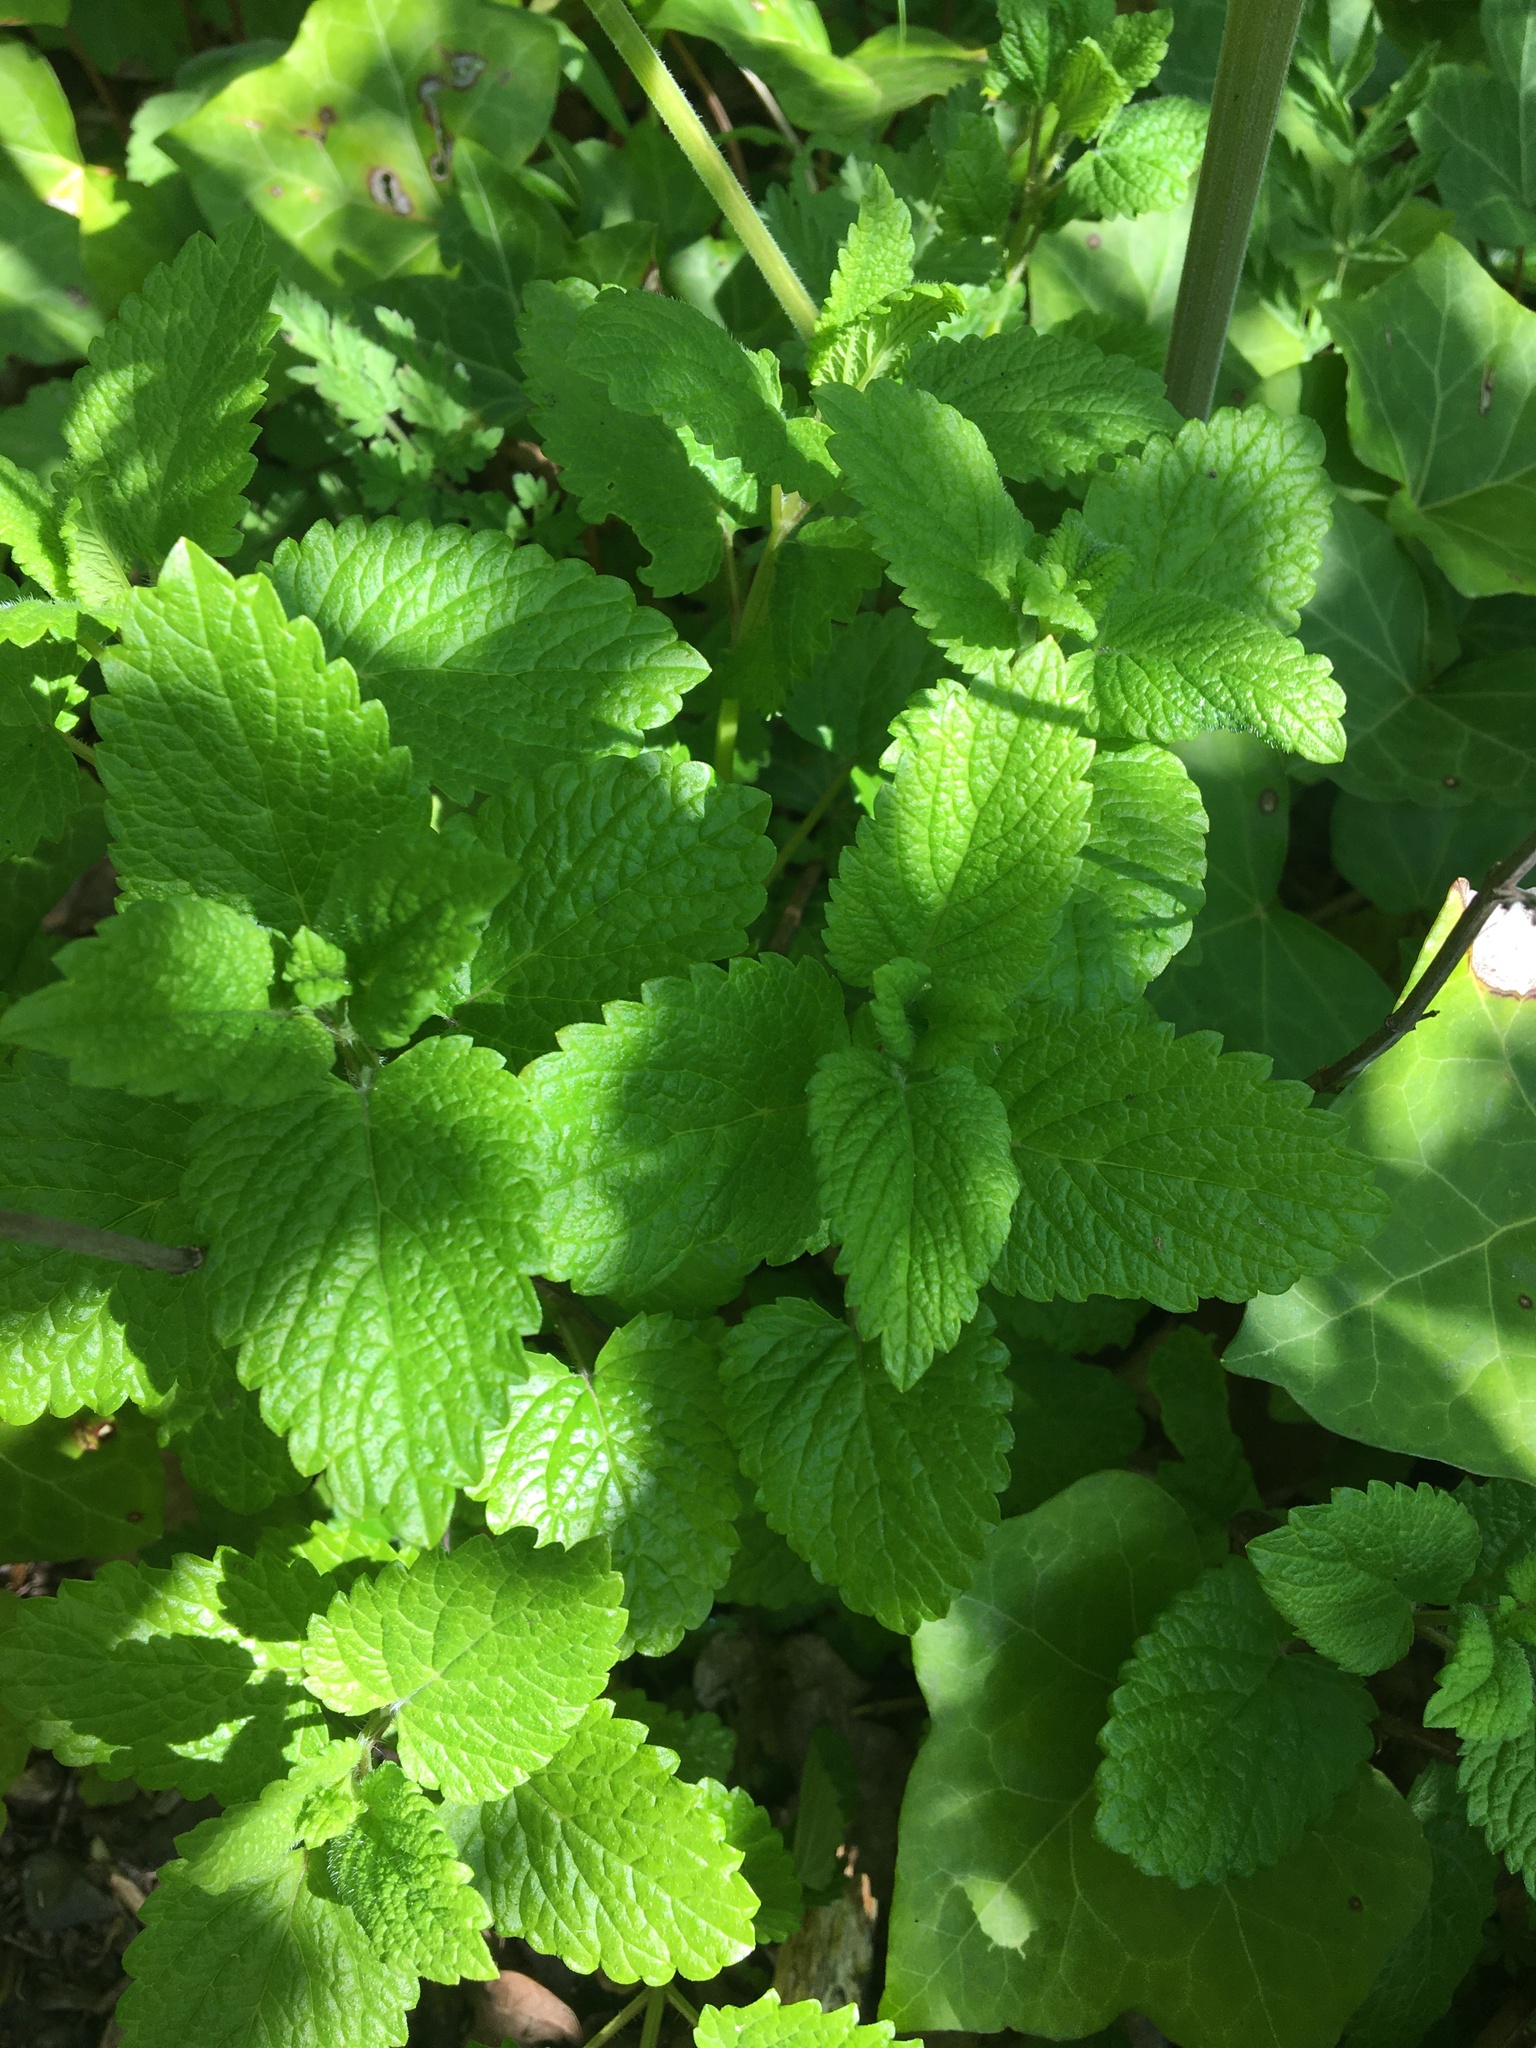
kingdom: Plantae
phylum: Tracheophyta
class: Magnoliopsida
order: Lamiales
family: Lamiaceae
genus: Melissa
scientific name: Melissa officinalis
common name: Balm
